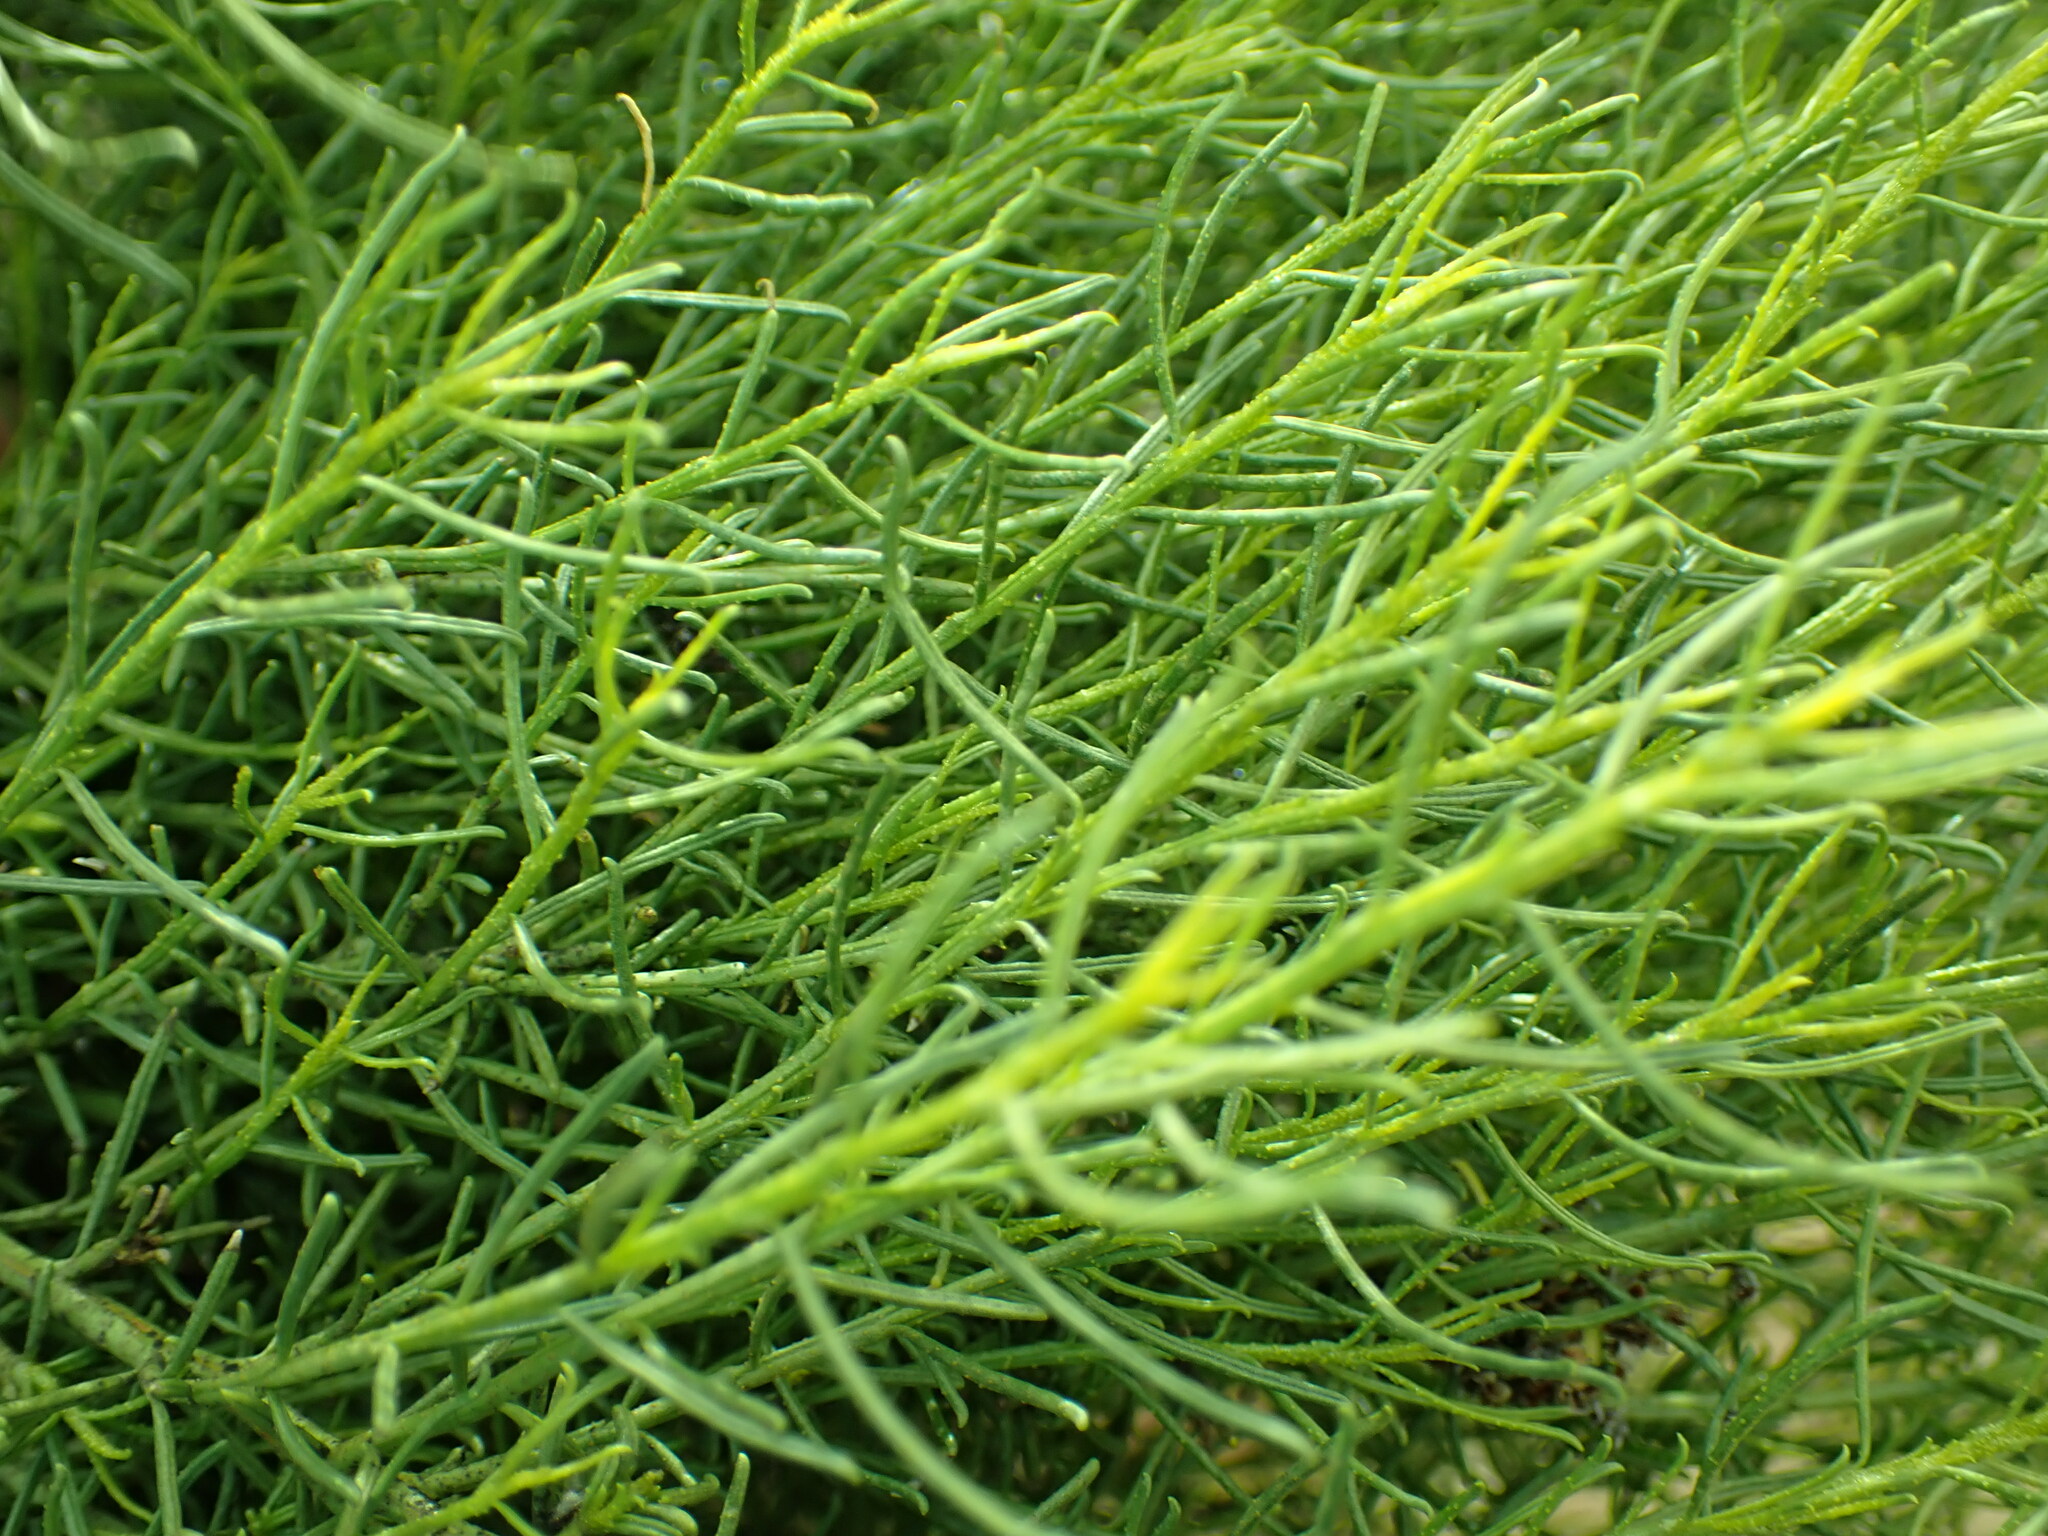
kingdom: Plantae
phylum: Tracheophyta
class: Magnoliopsida
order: Asterales
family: Asteraceae
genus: Ericameria
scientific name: Ericameria linearifolia
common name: Interior goldenbush
